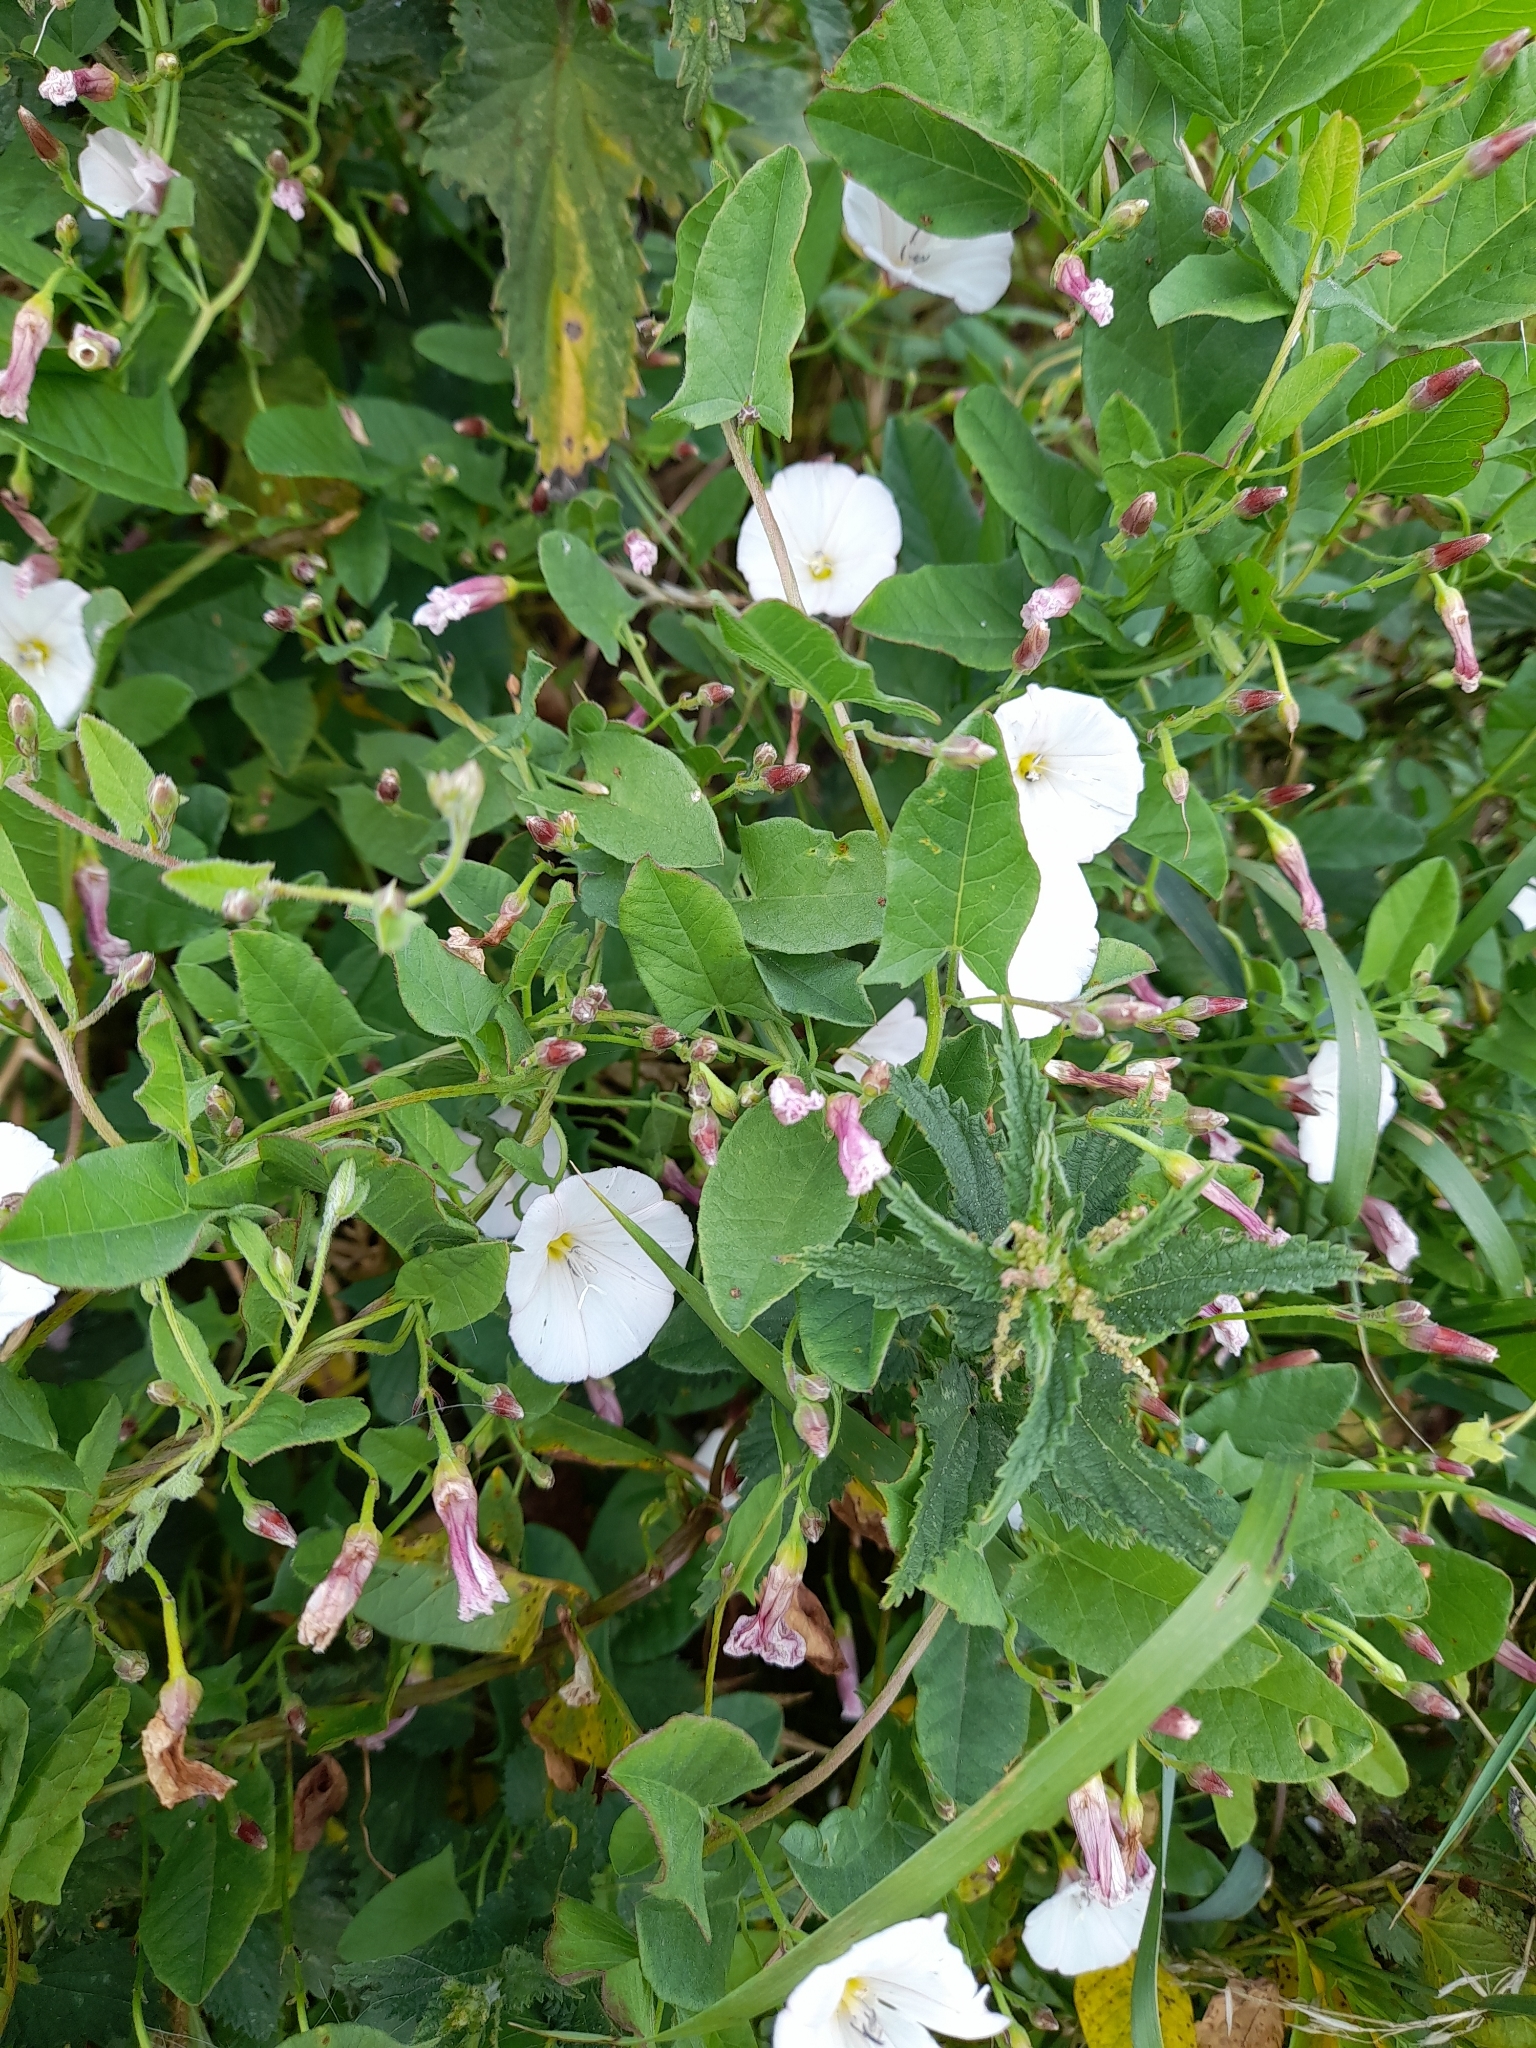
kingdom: Plantae
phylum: Tracheophyta
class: Magnoliopsida
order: Solanales
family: Convolvulaceae
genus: Convolvulus
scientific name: Convolvulus arvensis
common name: Field bindweed
